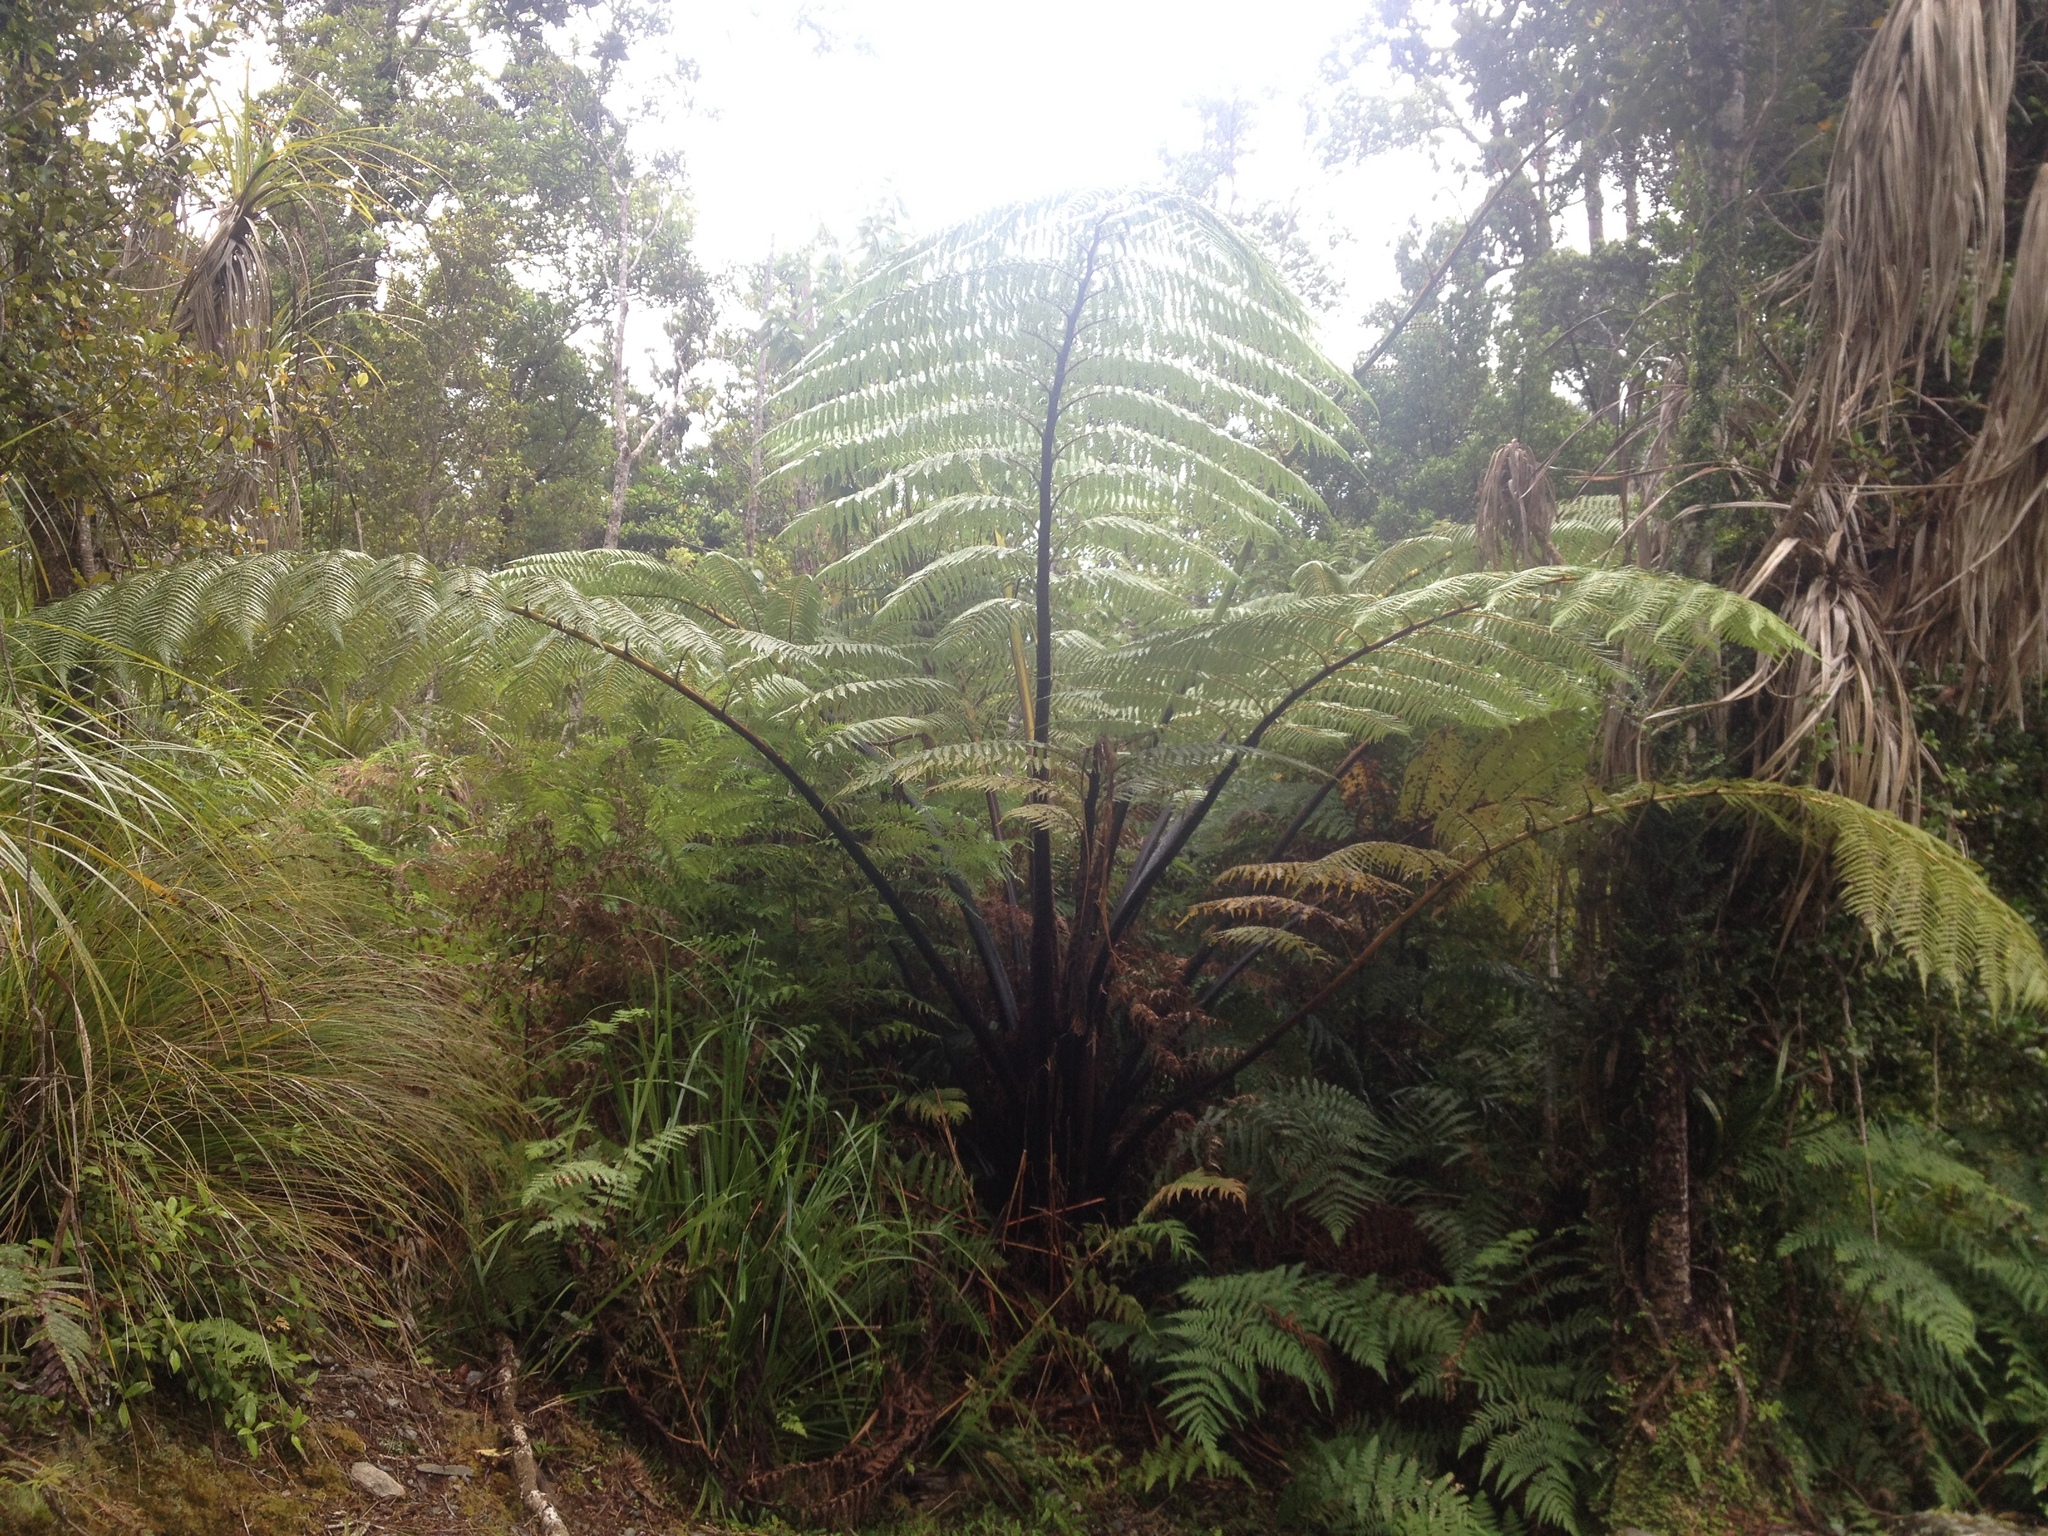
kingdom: Plantae
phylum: Tracheophyta
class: Polypodiopsida
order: Cyatheales
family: Cyatheaceae
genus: Sphaeropteris
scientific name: Sphaeropteris medullaris
